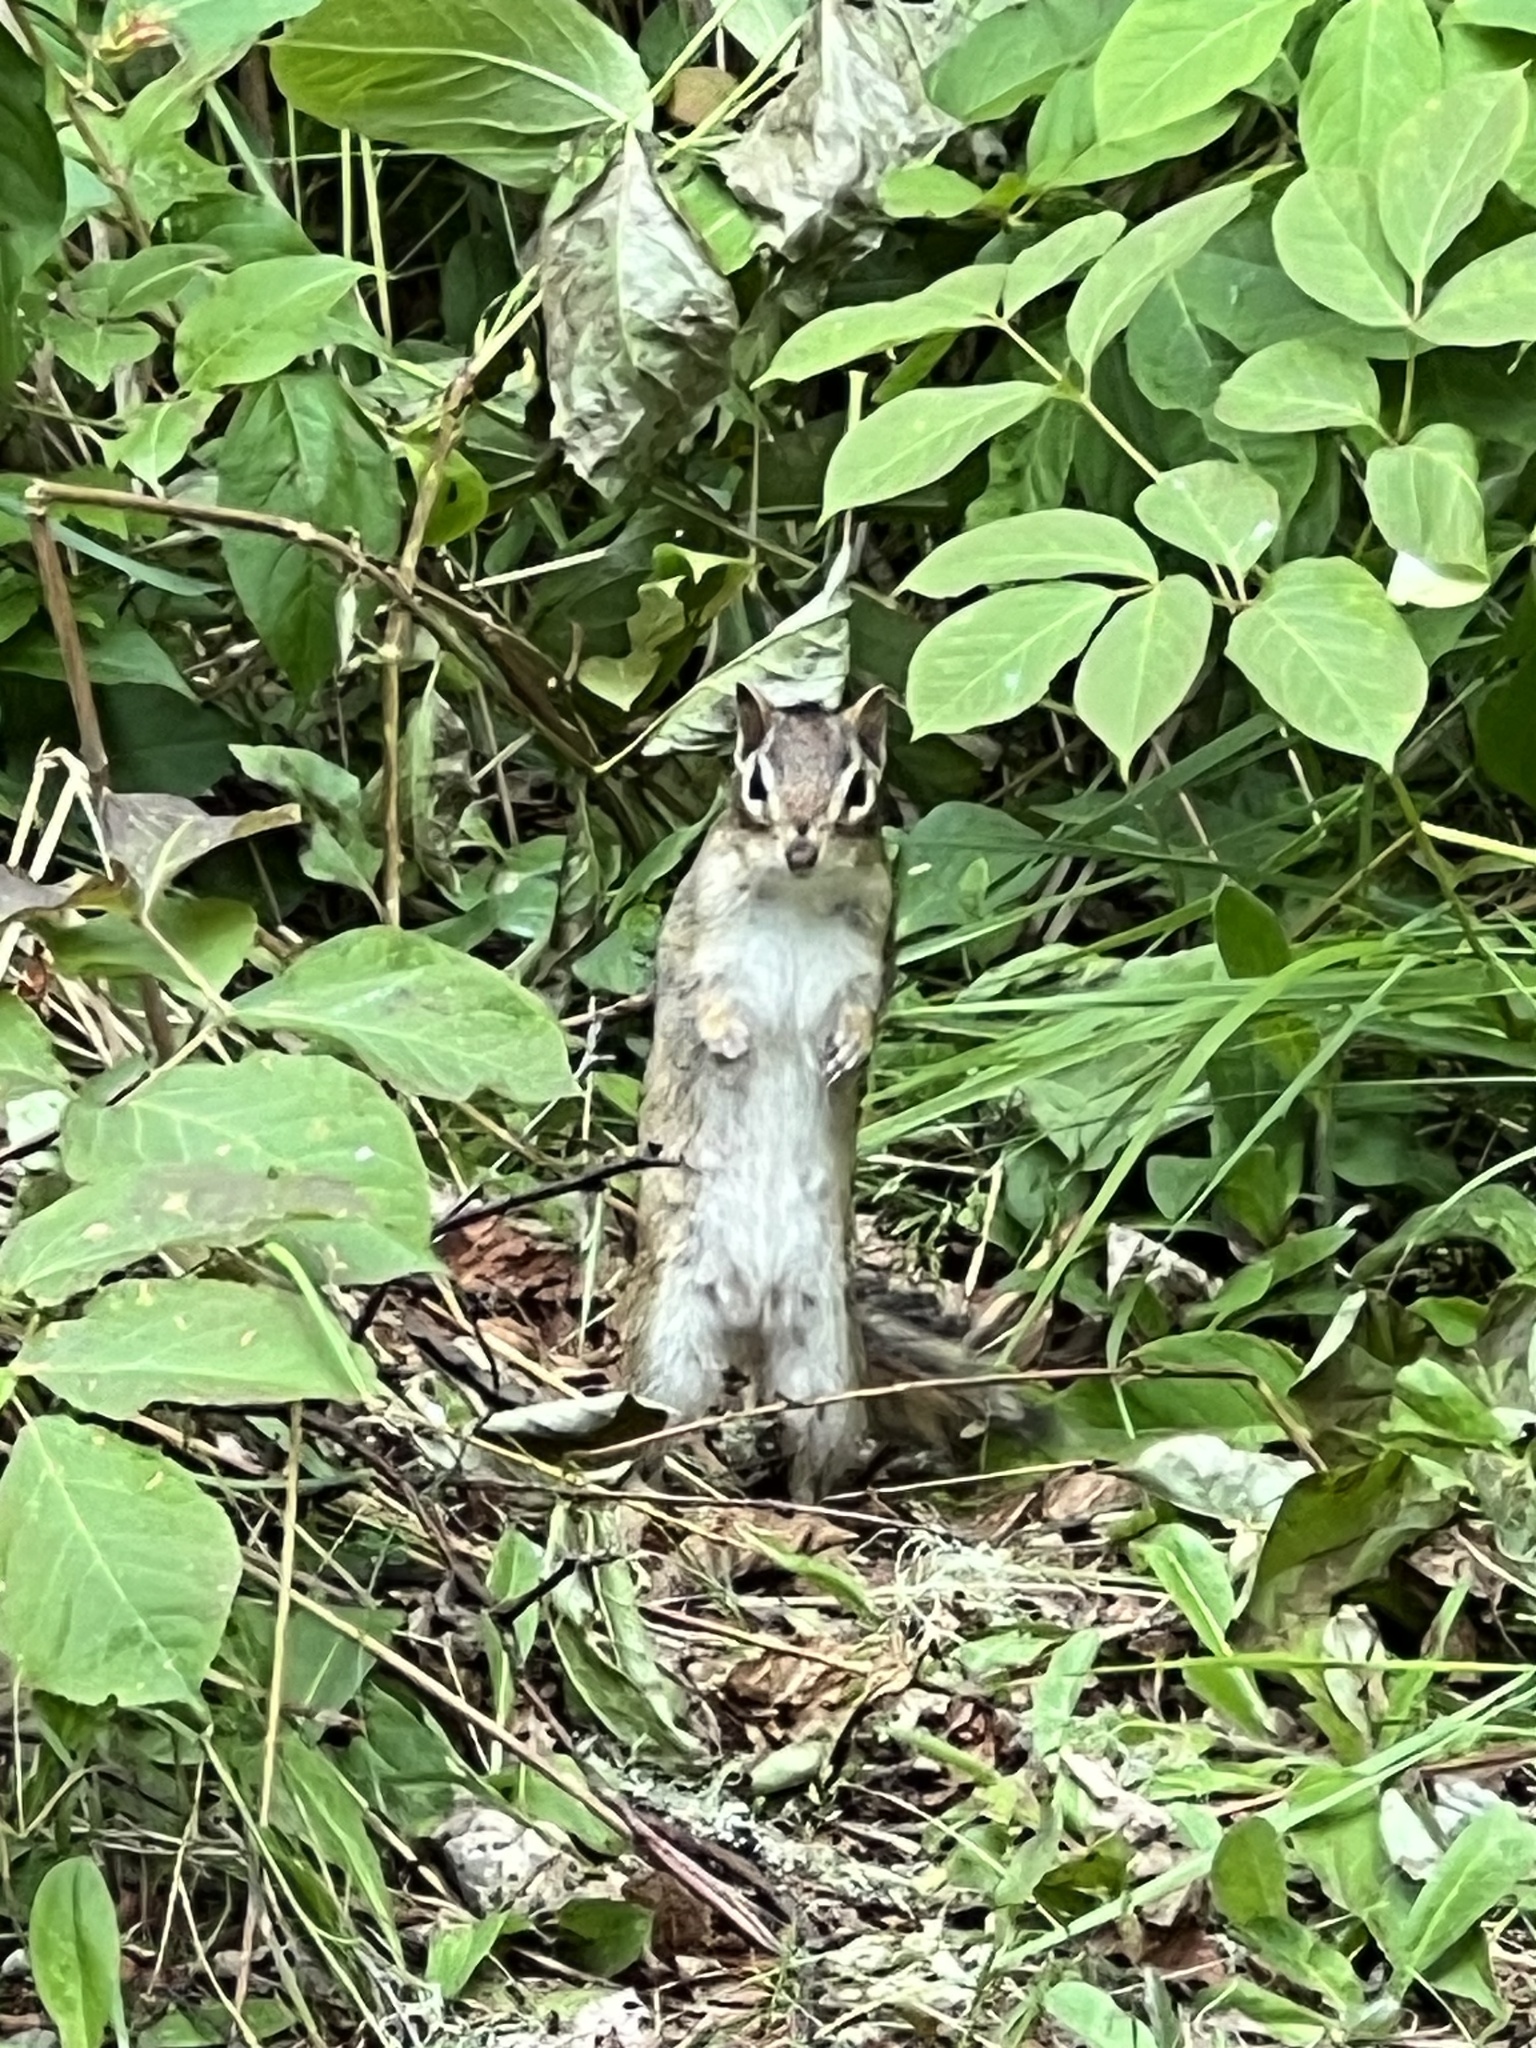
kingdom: Animalia
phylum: Chordata
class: Mammalia
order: Rodentia
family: Sciuridae
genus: Tamias
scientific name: Tamias striatus
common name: Eastern chipmunk
